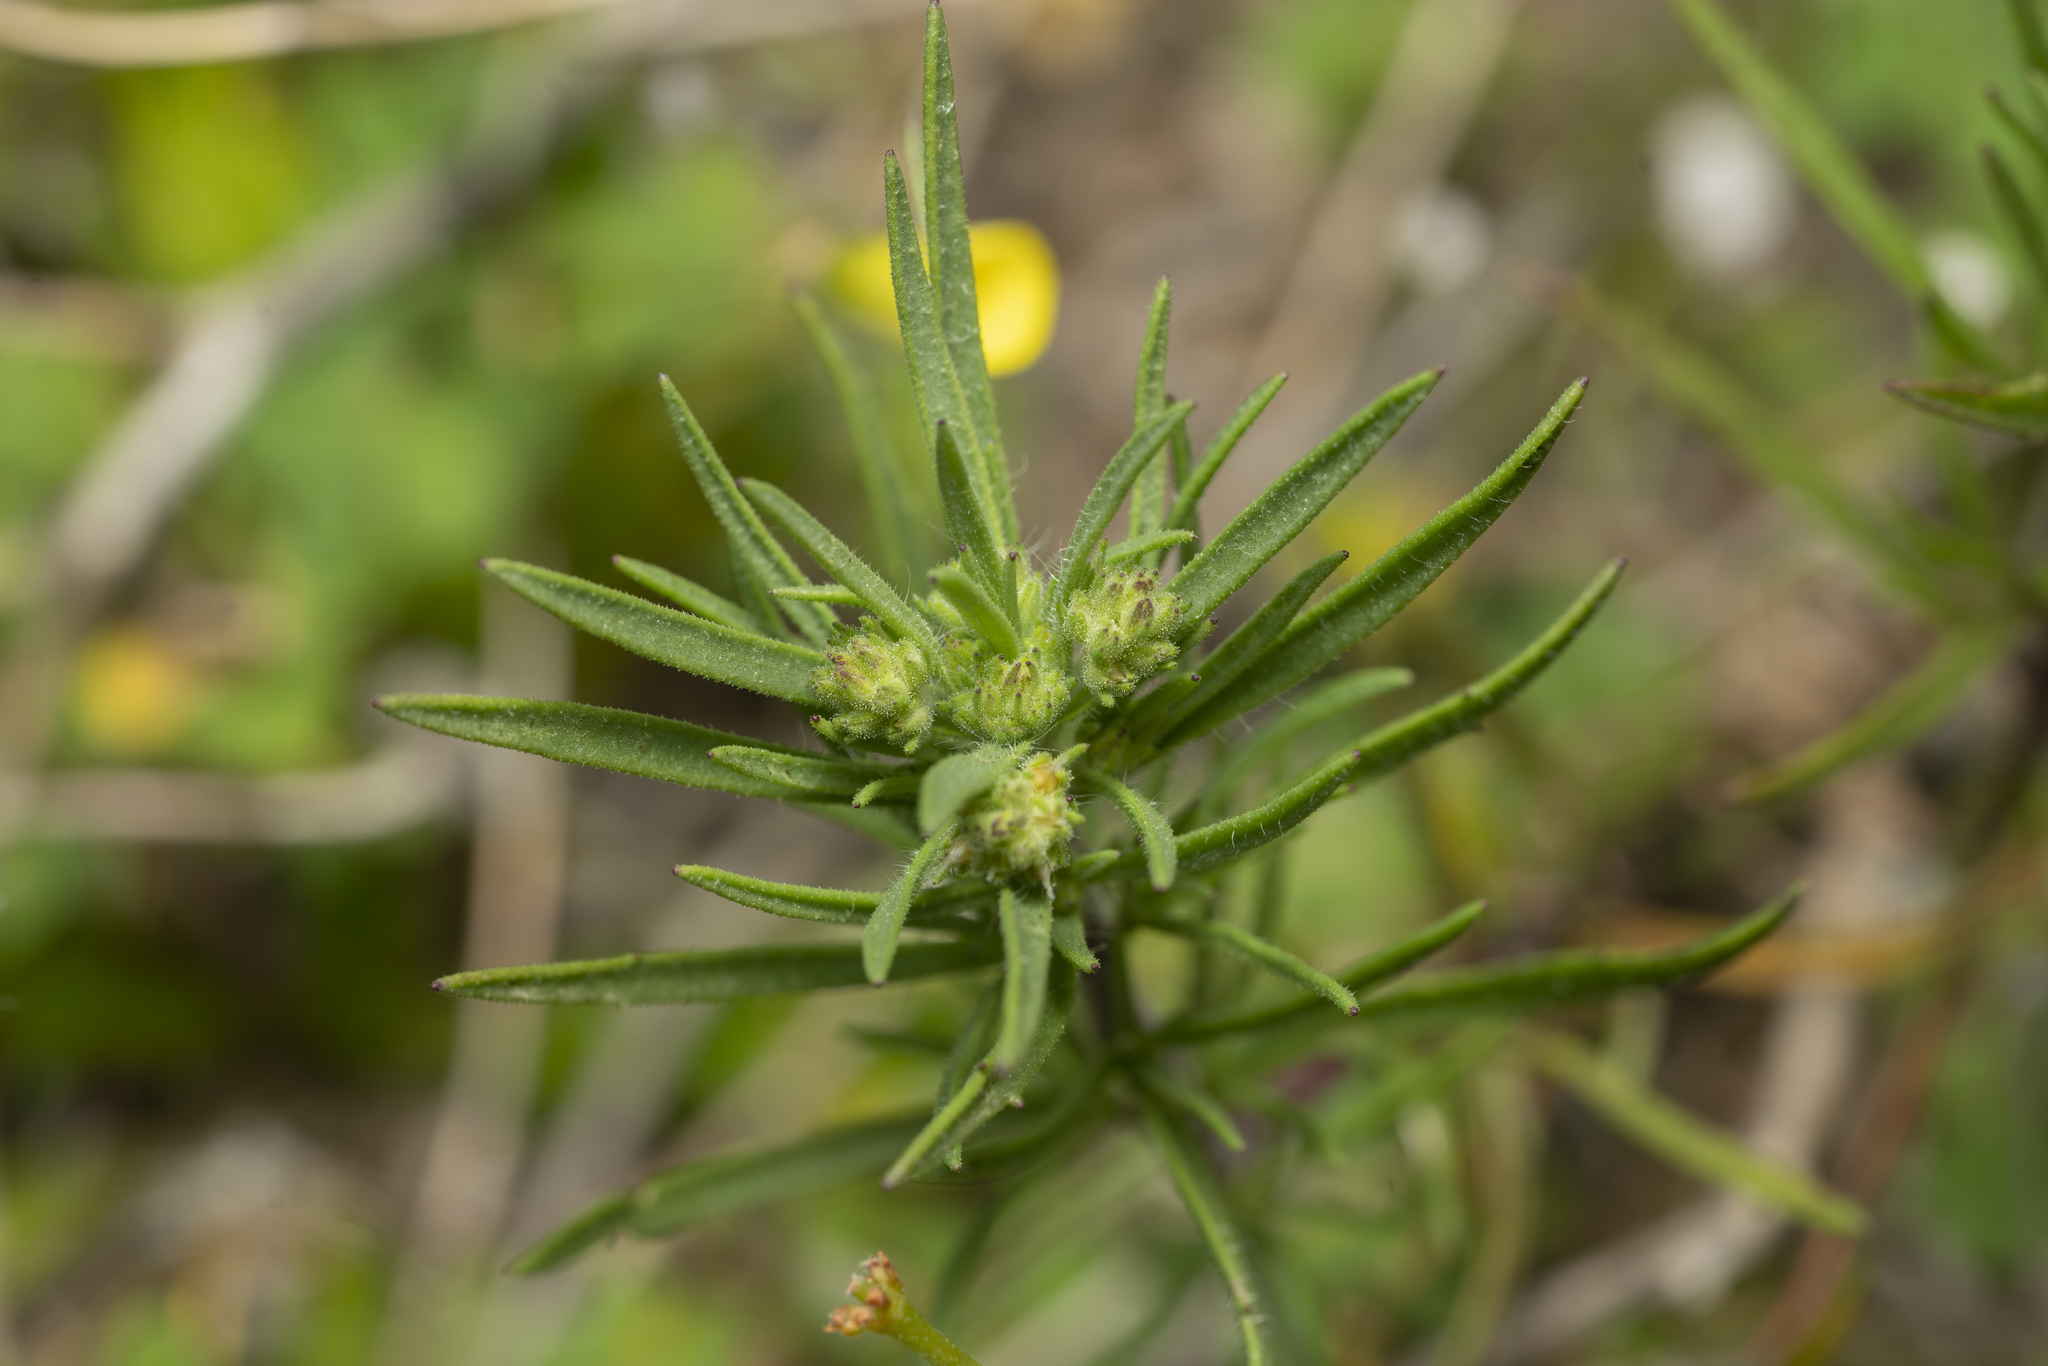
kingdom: Plantae
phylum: Tracheophyta
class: Magnoliopsida
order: Lamiales
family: Plantaginaceae
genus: Plantago
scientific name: Plantago afra
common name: Glandular plantain
